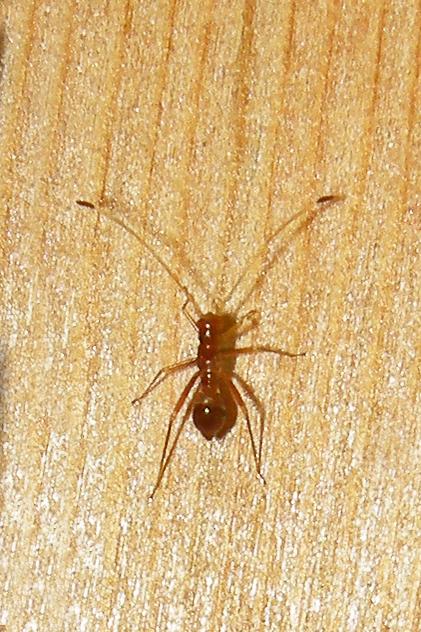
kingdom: Animalia
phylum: Arthropoda
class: Insecta
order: Hemiptera
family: Miridae
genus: Paraxenetus
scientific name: Paraxenetus guttulatus
